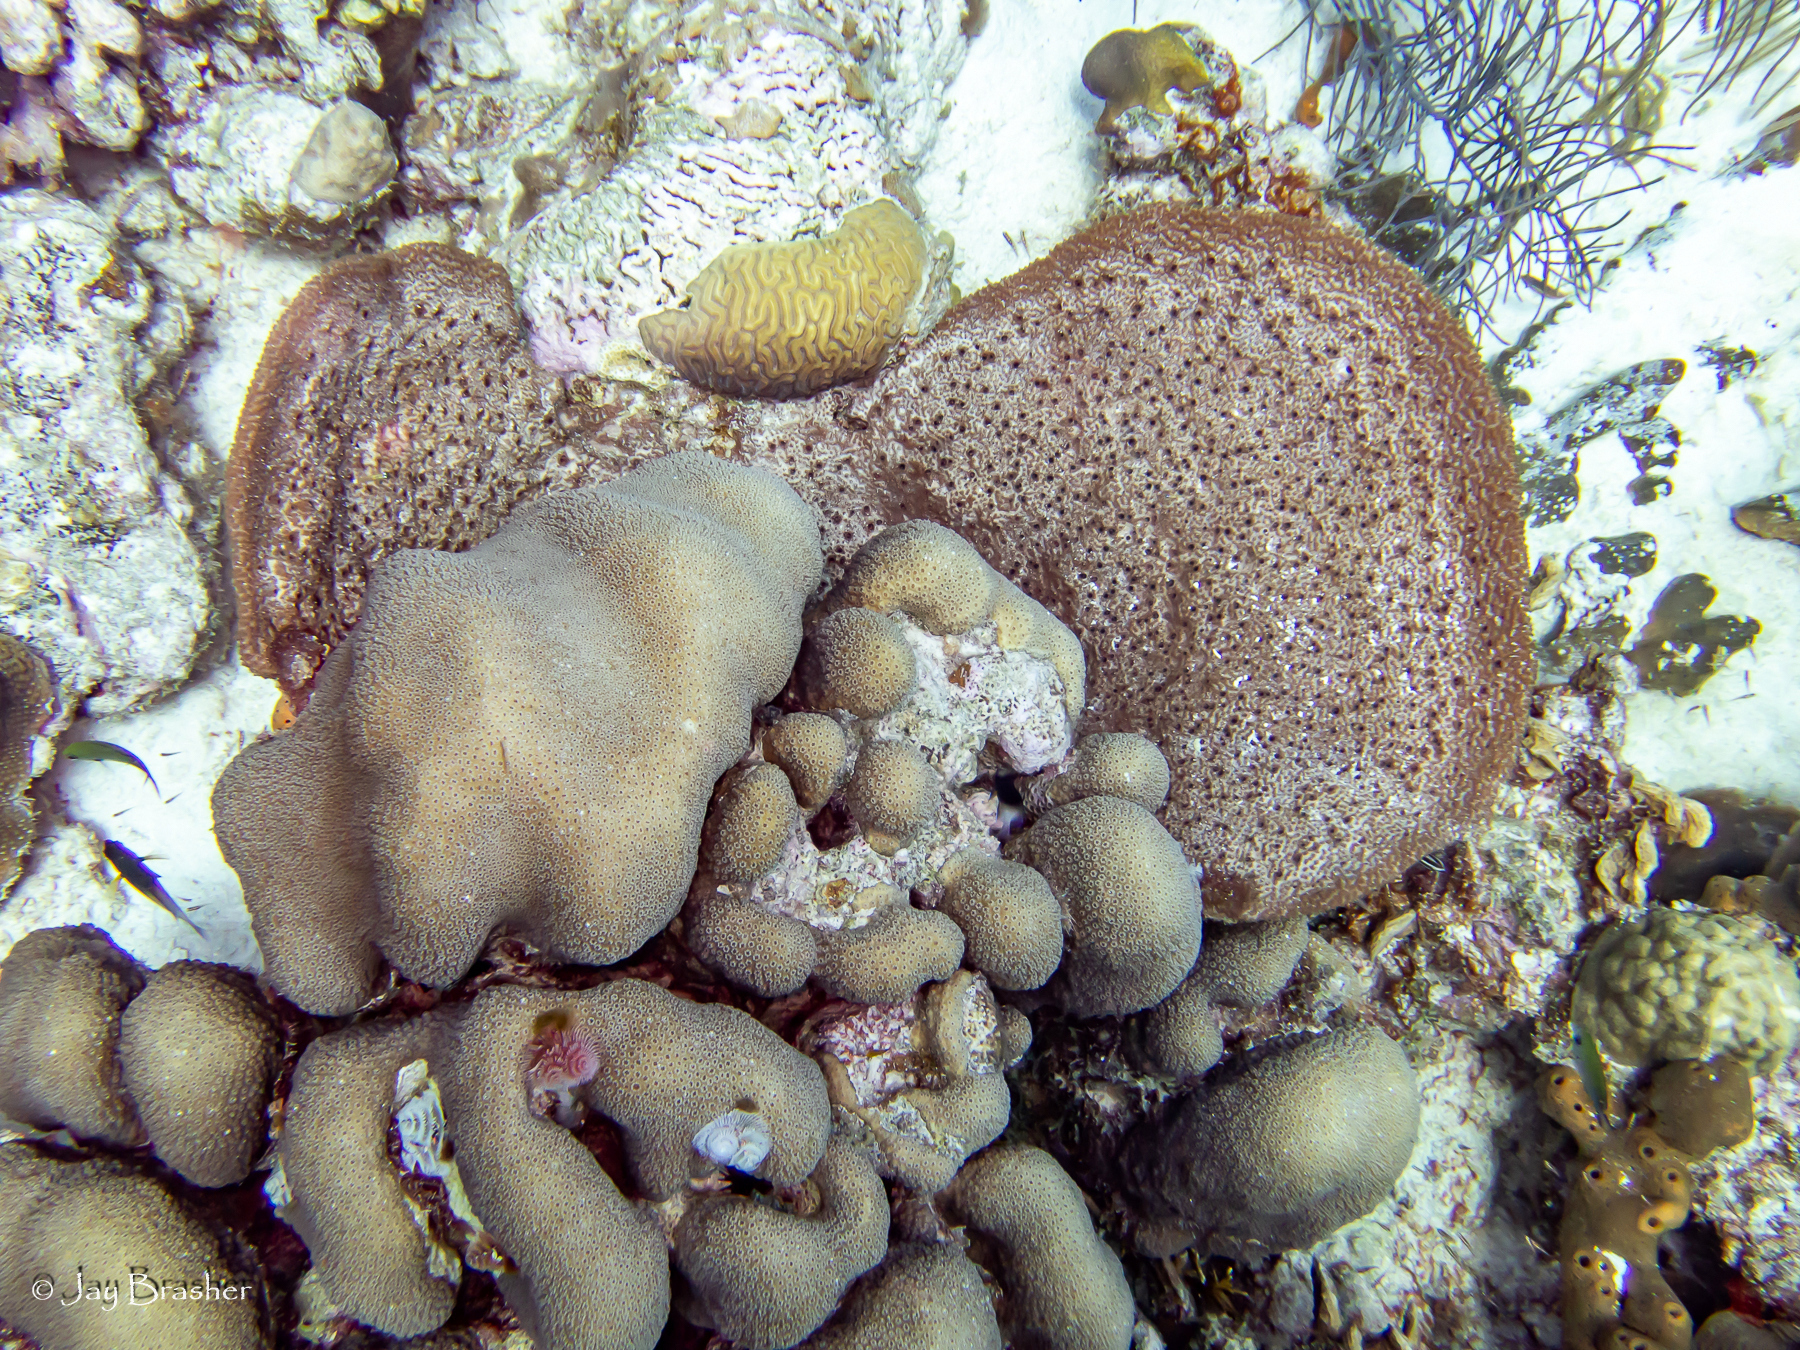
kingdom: Animalia
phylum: Porifera
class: Demospongiae
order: Dictyoceratida
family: Irciniidae
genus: Ircinia
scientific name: Ircinia campana
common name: Vase sponge
